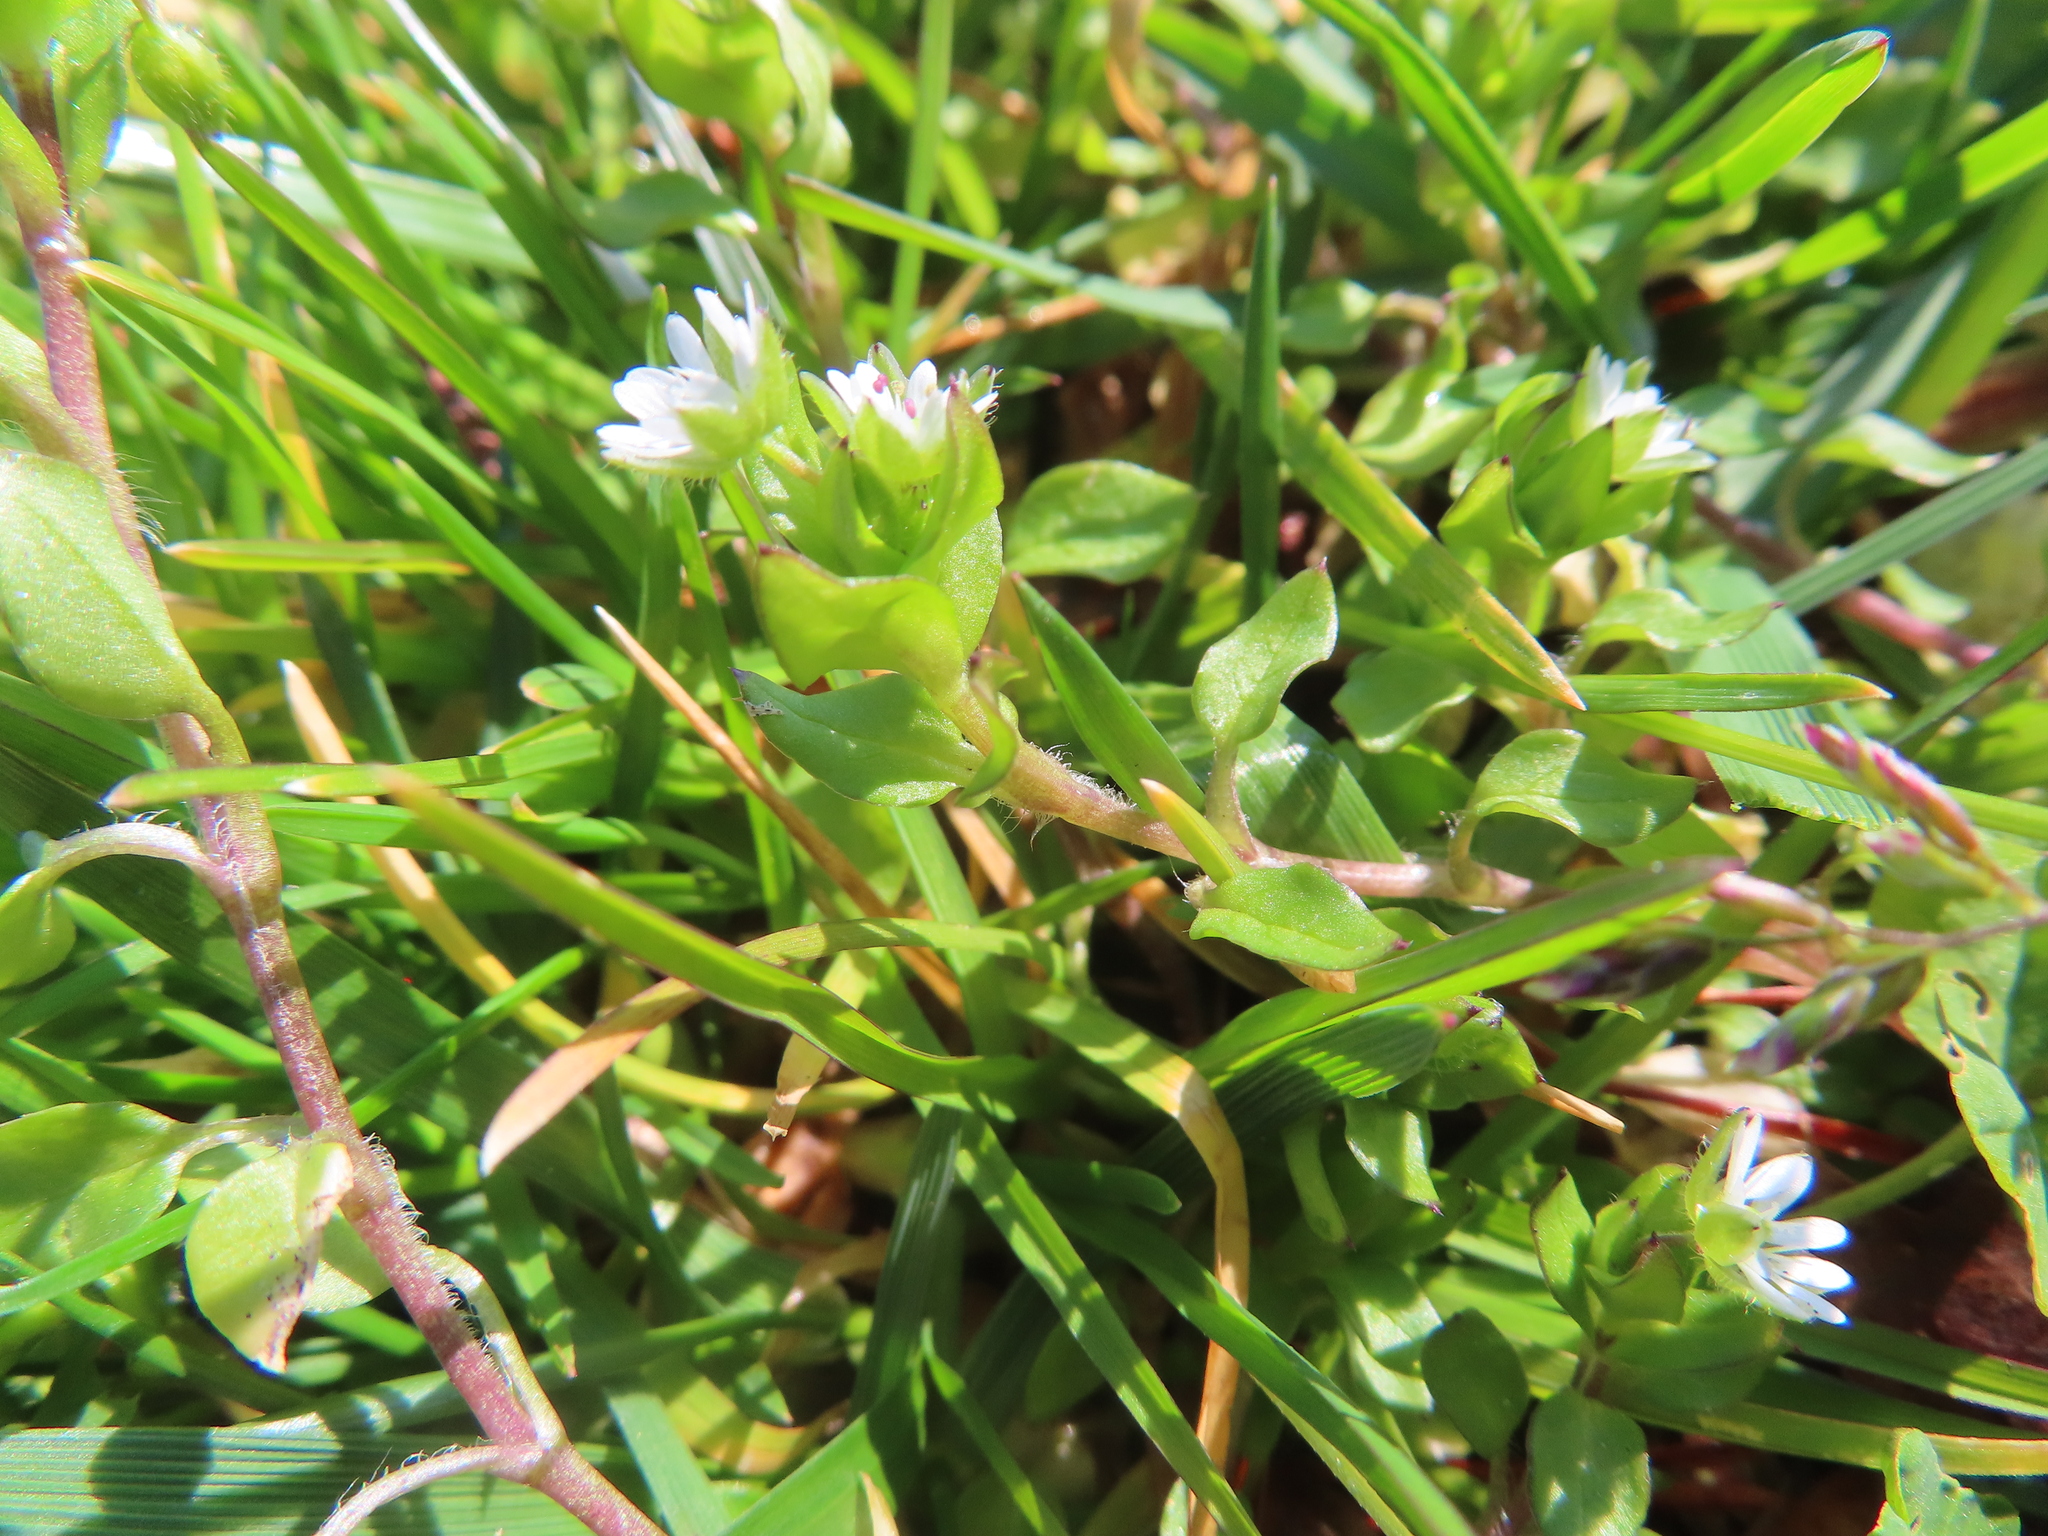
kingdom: Plantae
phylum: Tracheophyta
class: Magnoliopsida
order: Caryophyllales
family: Caryophyllaceae
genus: Stellaria
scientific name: Stellaria media
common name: Common chickweed
